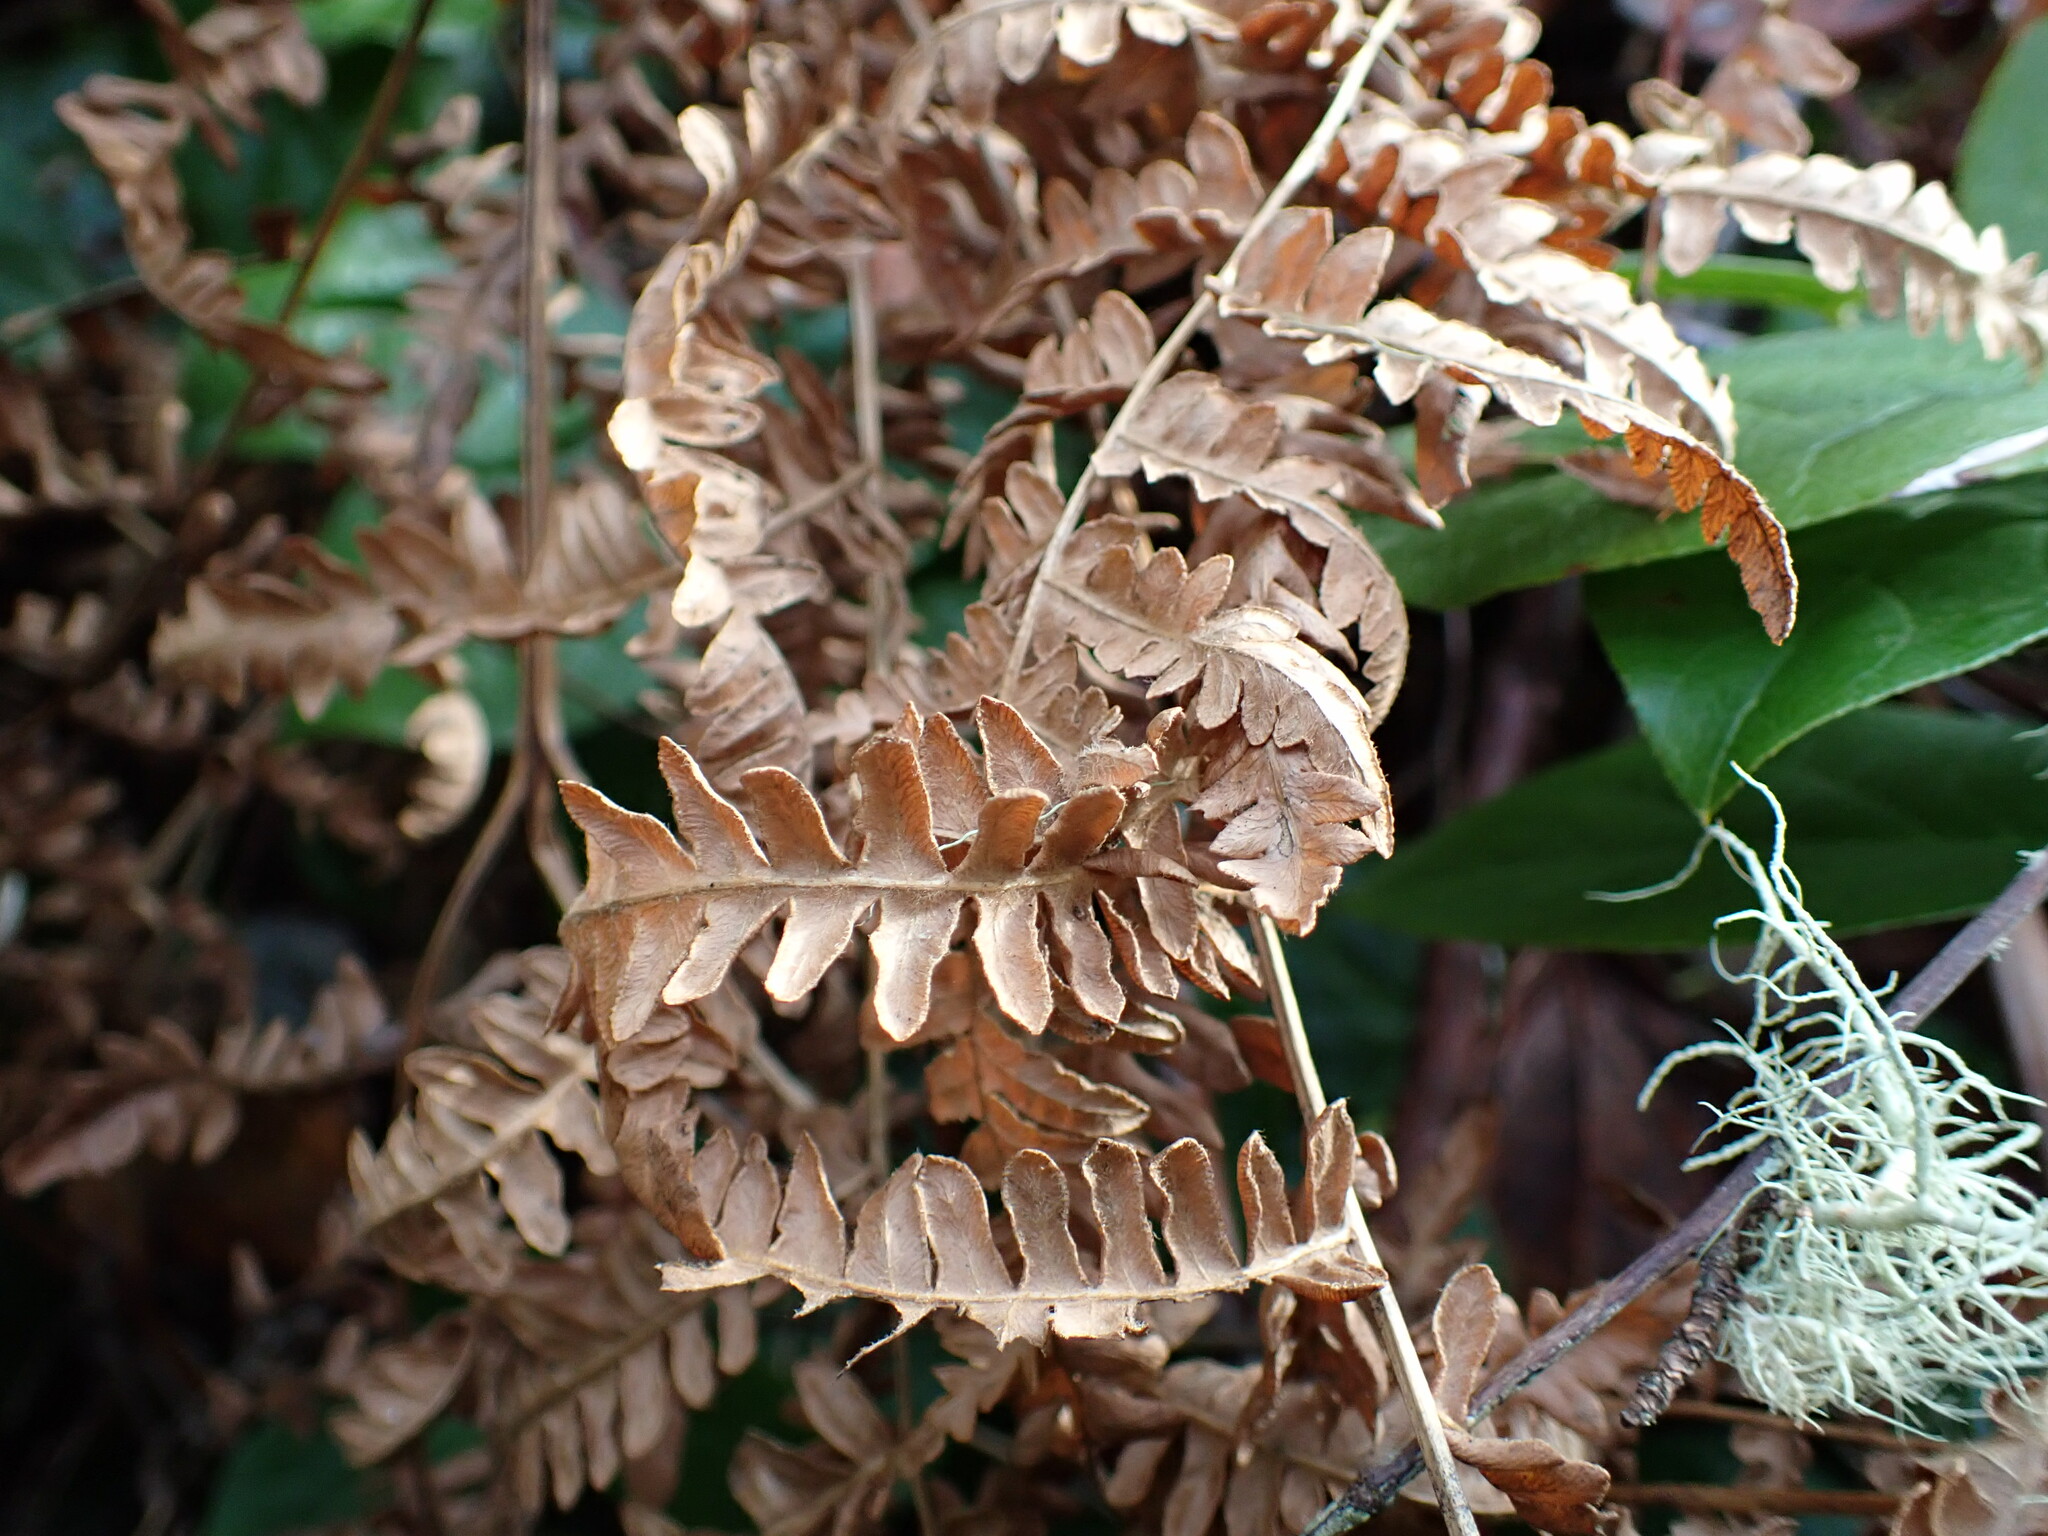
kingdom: Plantae
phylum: Tracheophyta
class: Polypodiopsida
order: Polypodiales
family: Dennstaedtiaceae
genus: Pteridium
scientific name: Pteridium aquilinum
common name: Bracken
